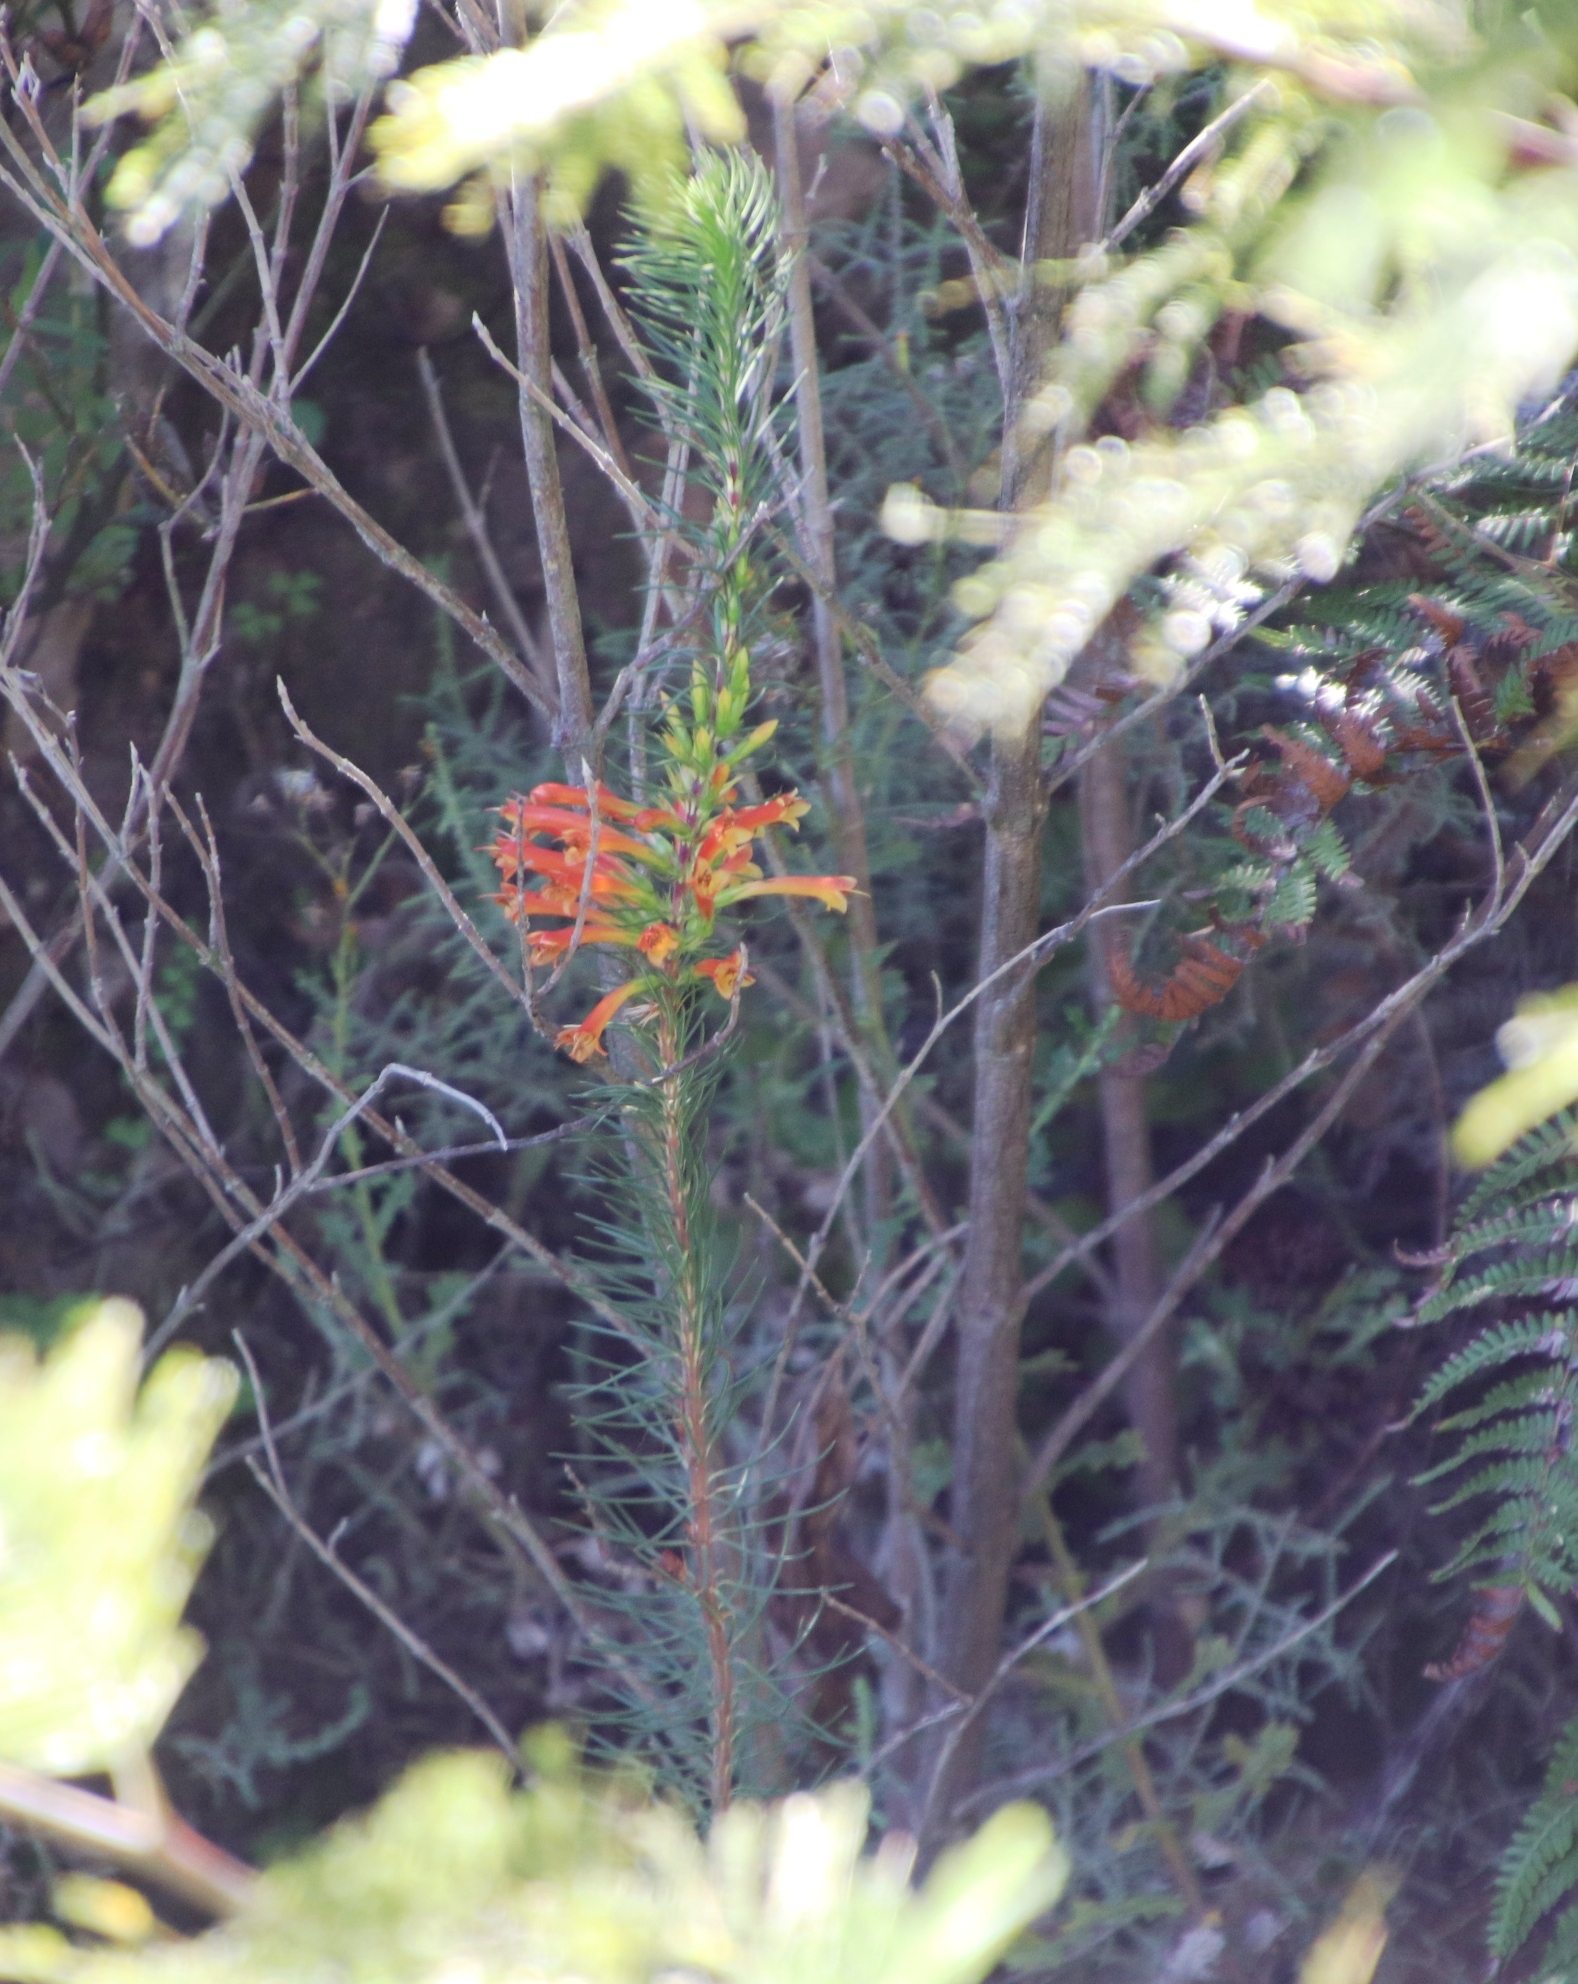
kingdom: Plantae
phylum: Tracheophyta
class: Magnoliopsida
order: Ericales
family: Ericaceae
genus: Erica
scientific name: Erica grandiflora
